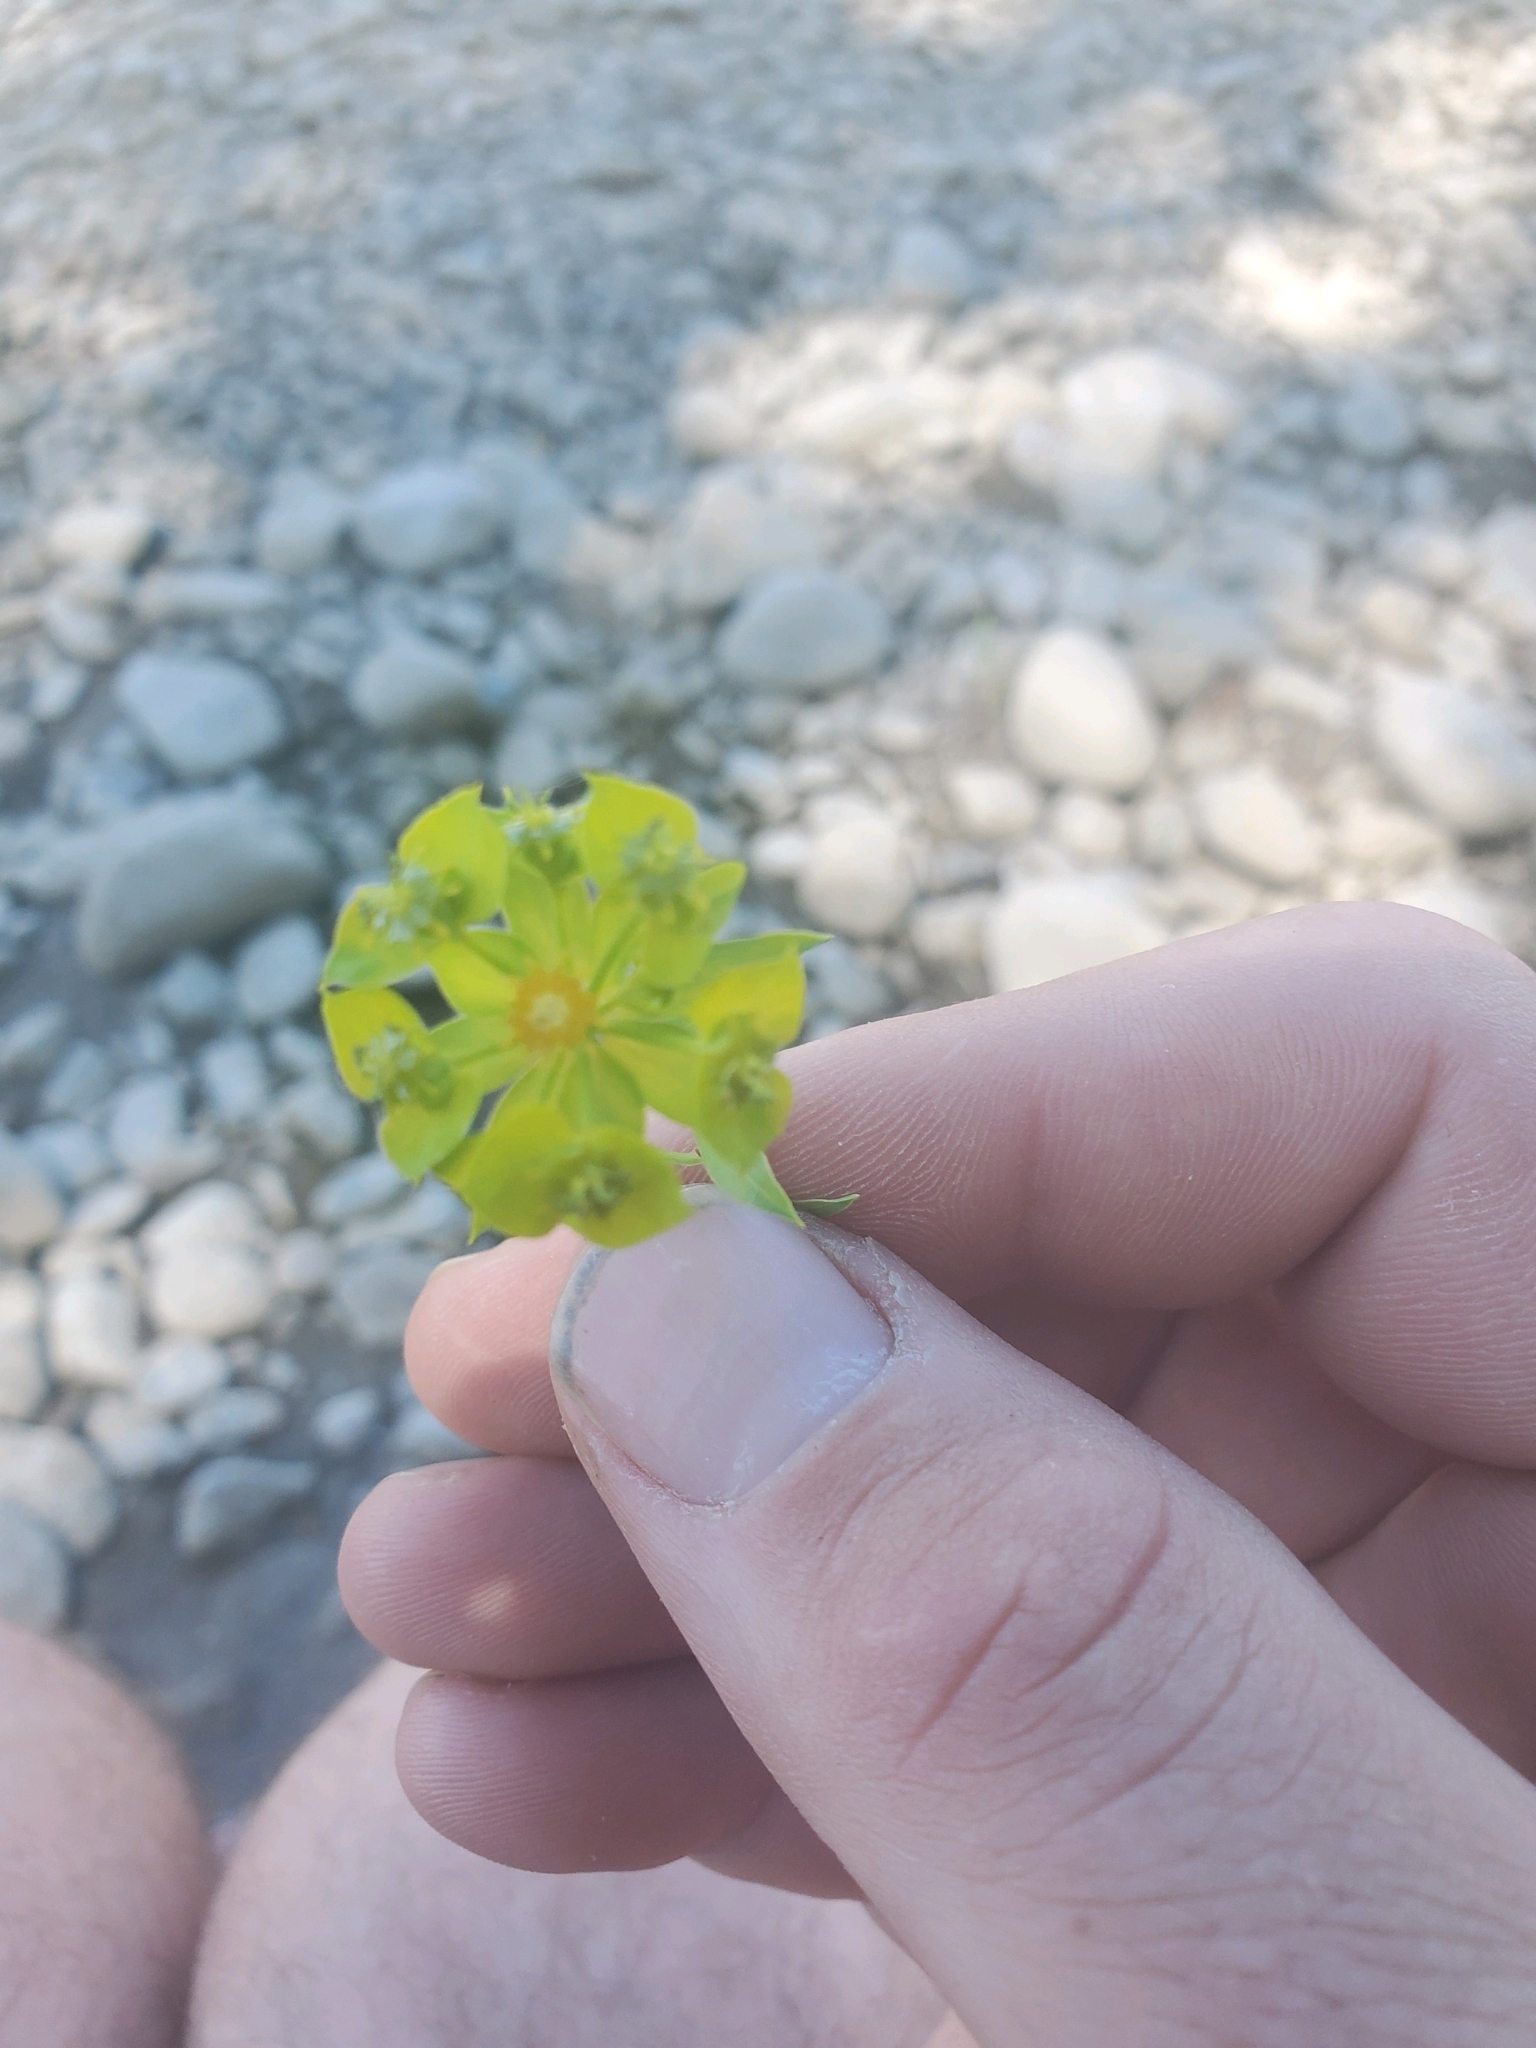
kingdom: Plantae
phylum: Tracheophyta
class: Magnoliopsida
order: Malpighiales
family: Euphorbiaceae
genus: Euphorbia
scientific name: Euphorbia virgata
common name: Leafy spurge
